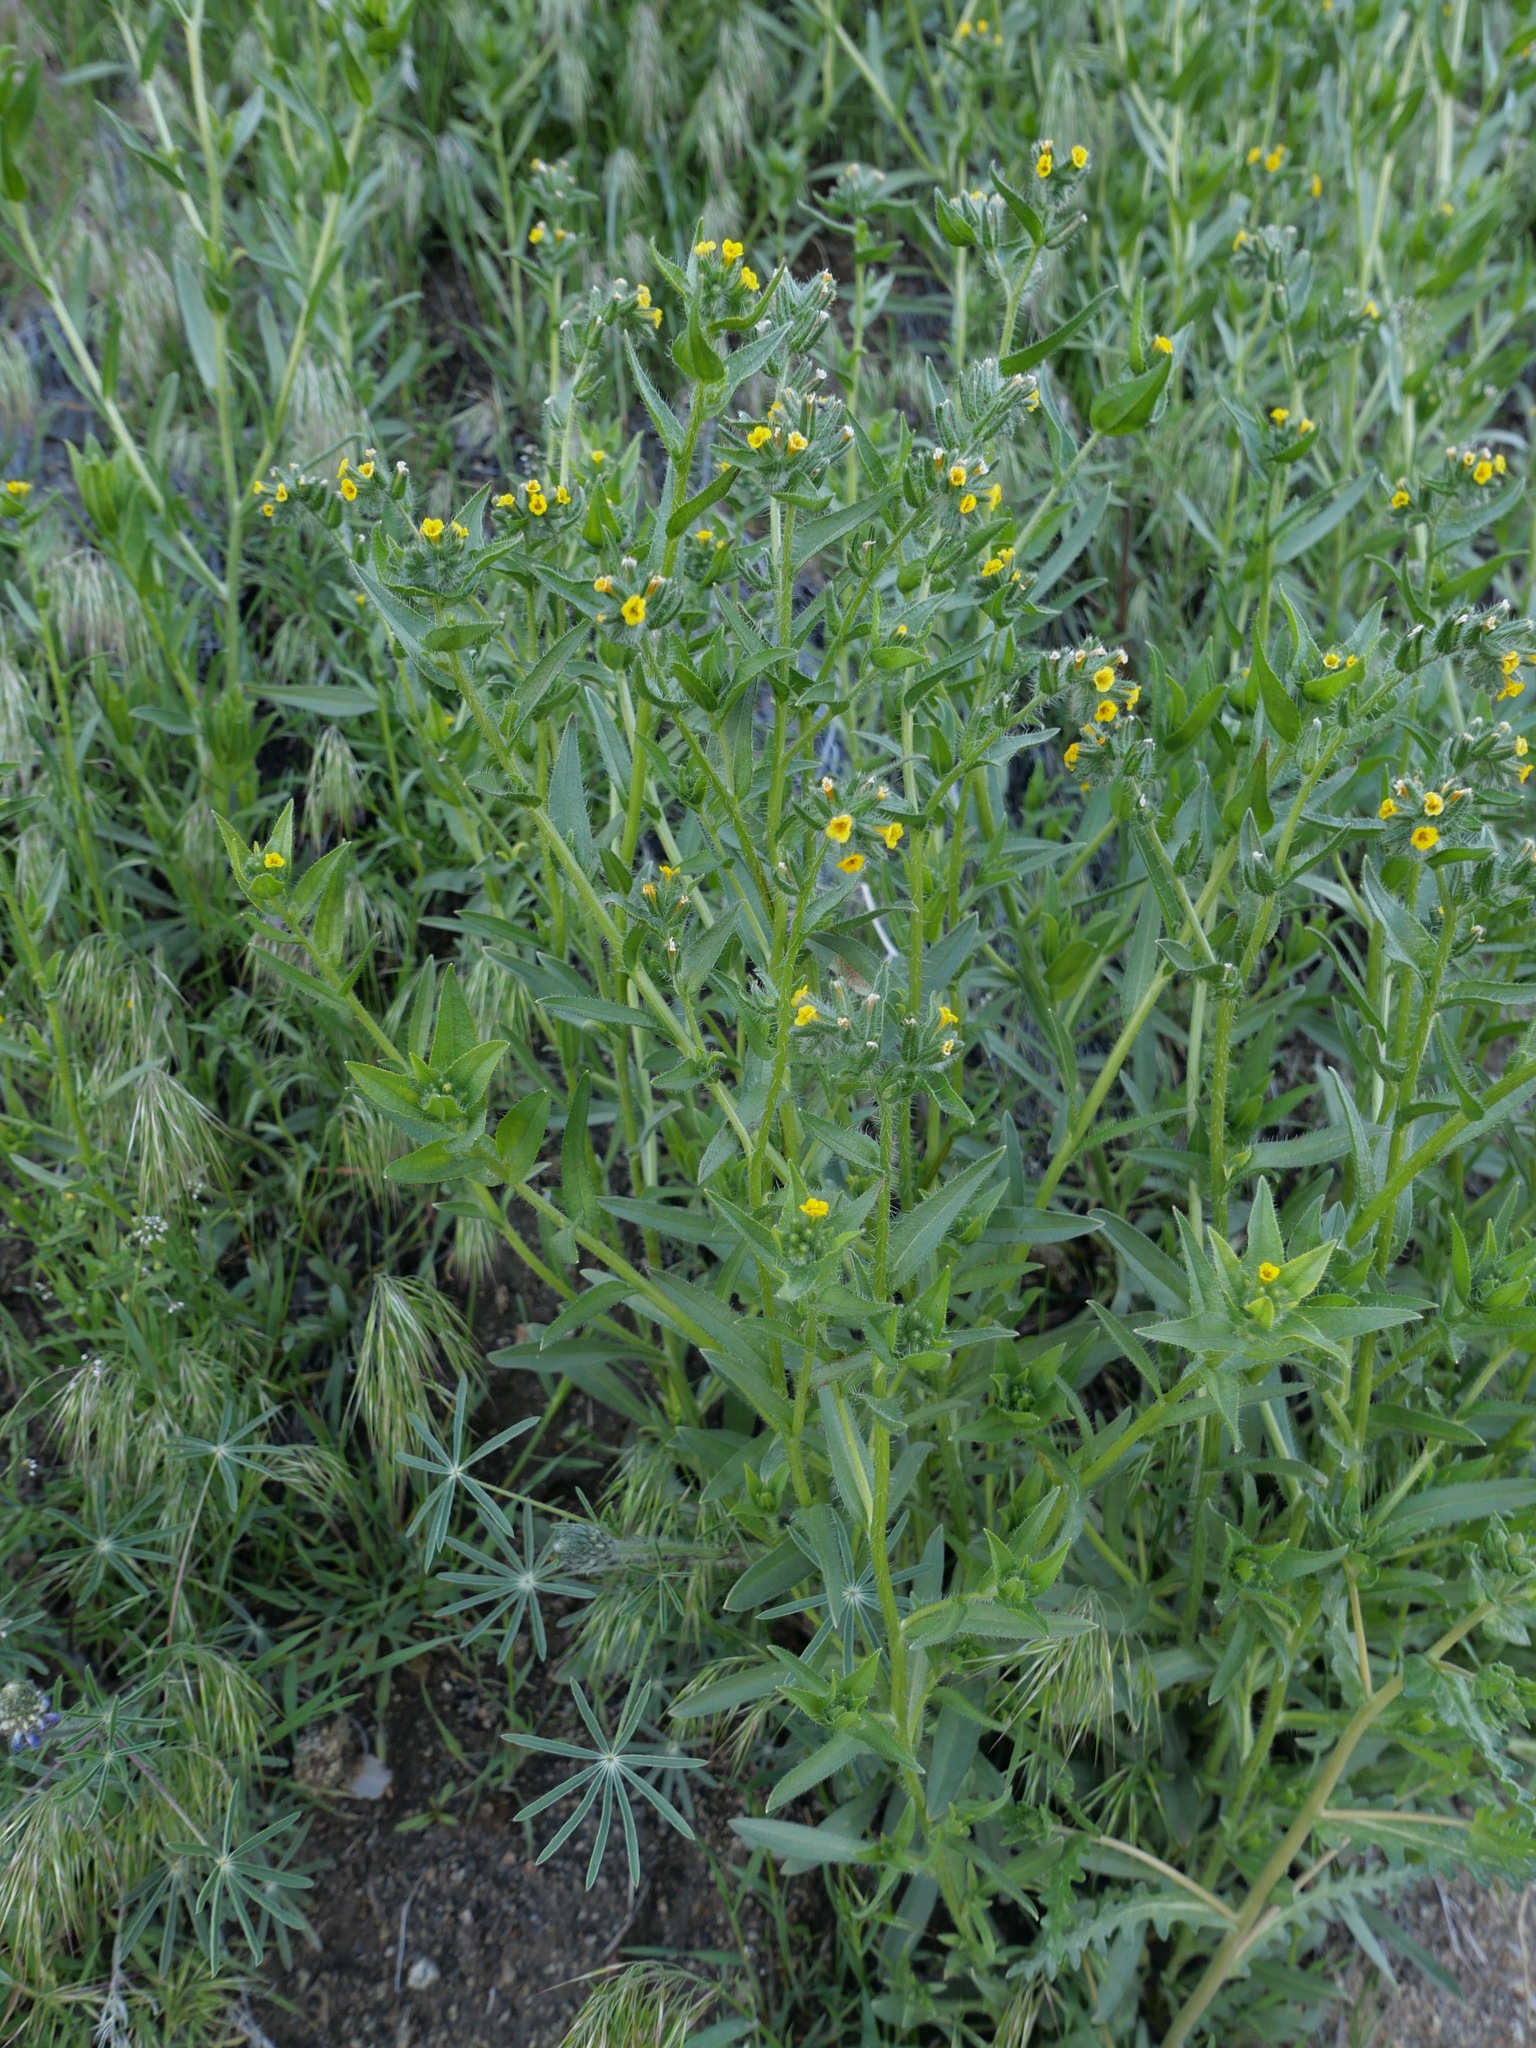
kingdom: Plantae
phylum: Tracheophyta
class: Magnoliopsida
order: Boraginales
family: Boraginaceae
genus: Amsinckia
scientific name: Amsinckia tessellata
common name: Tessellate fiddleneck
